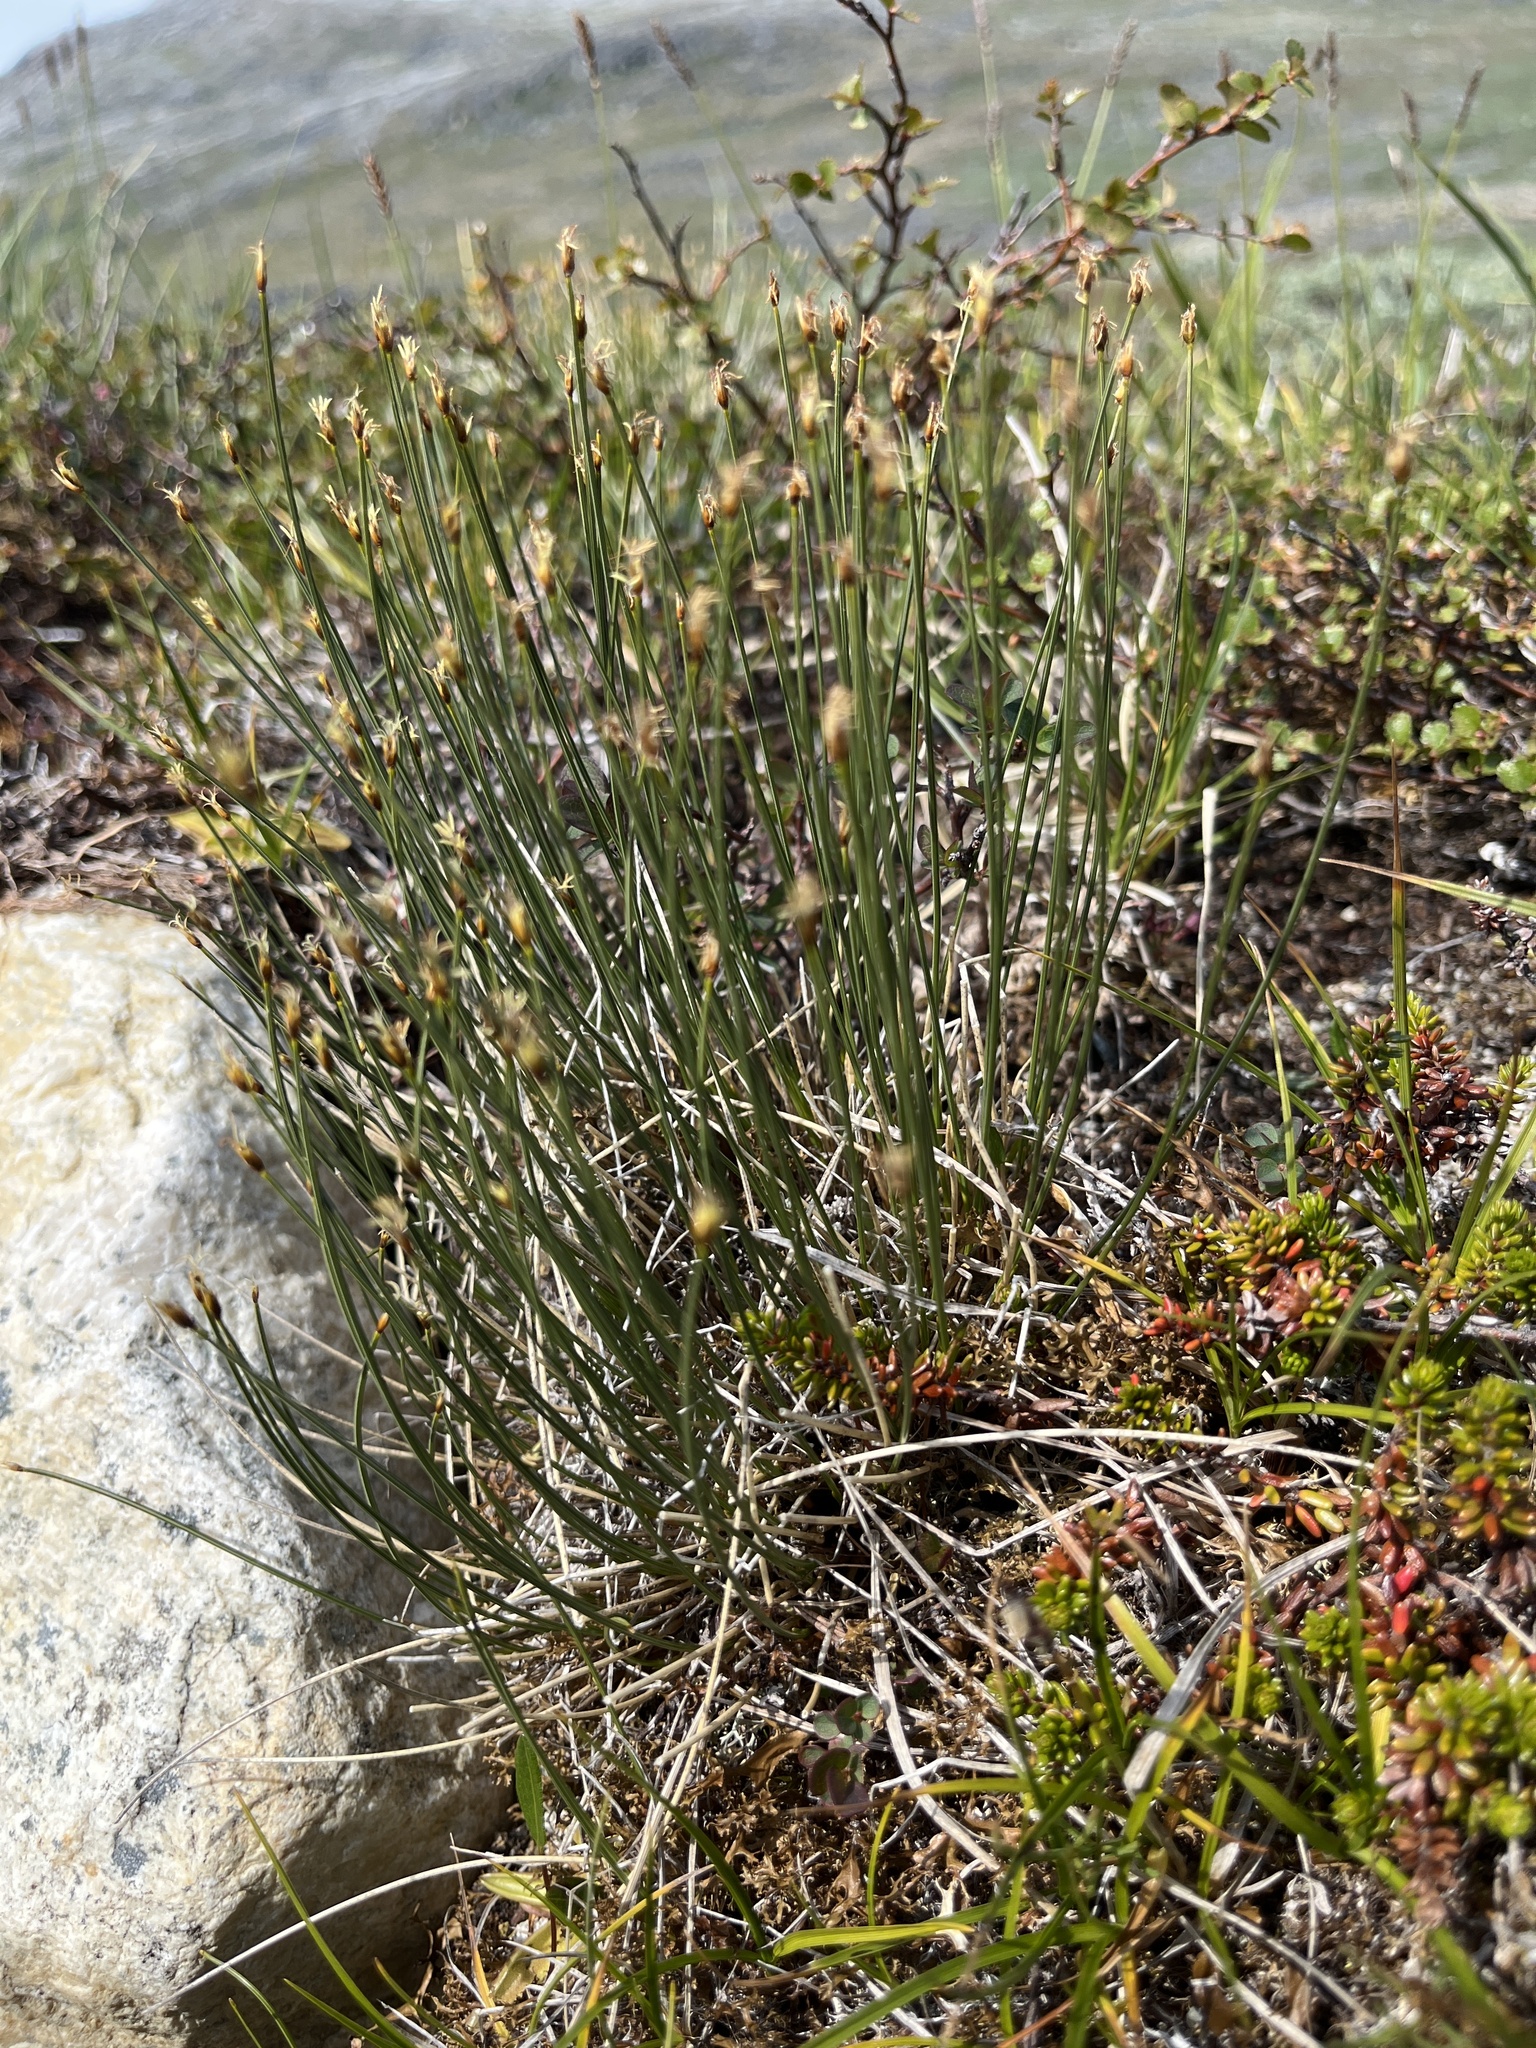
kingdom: Plantae
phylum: Tracheophyta
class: Liliopsida
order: Poales
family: Cyperaceae
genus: Trichophorum
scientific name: Trichophorum cespitosum
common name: Cespitose bulrush
